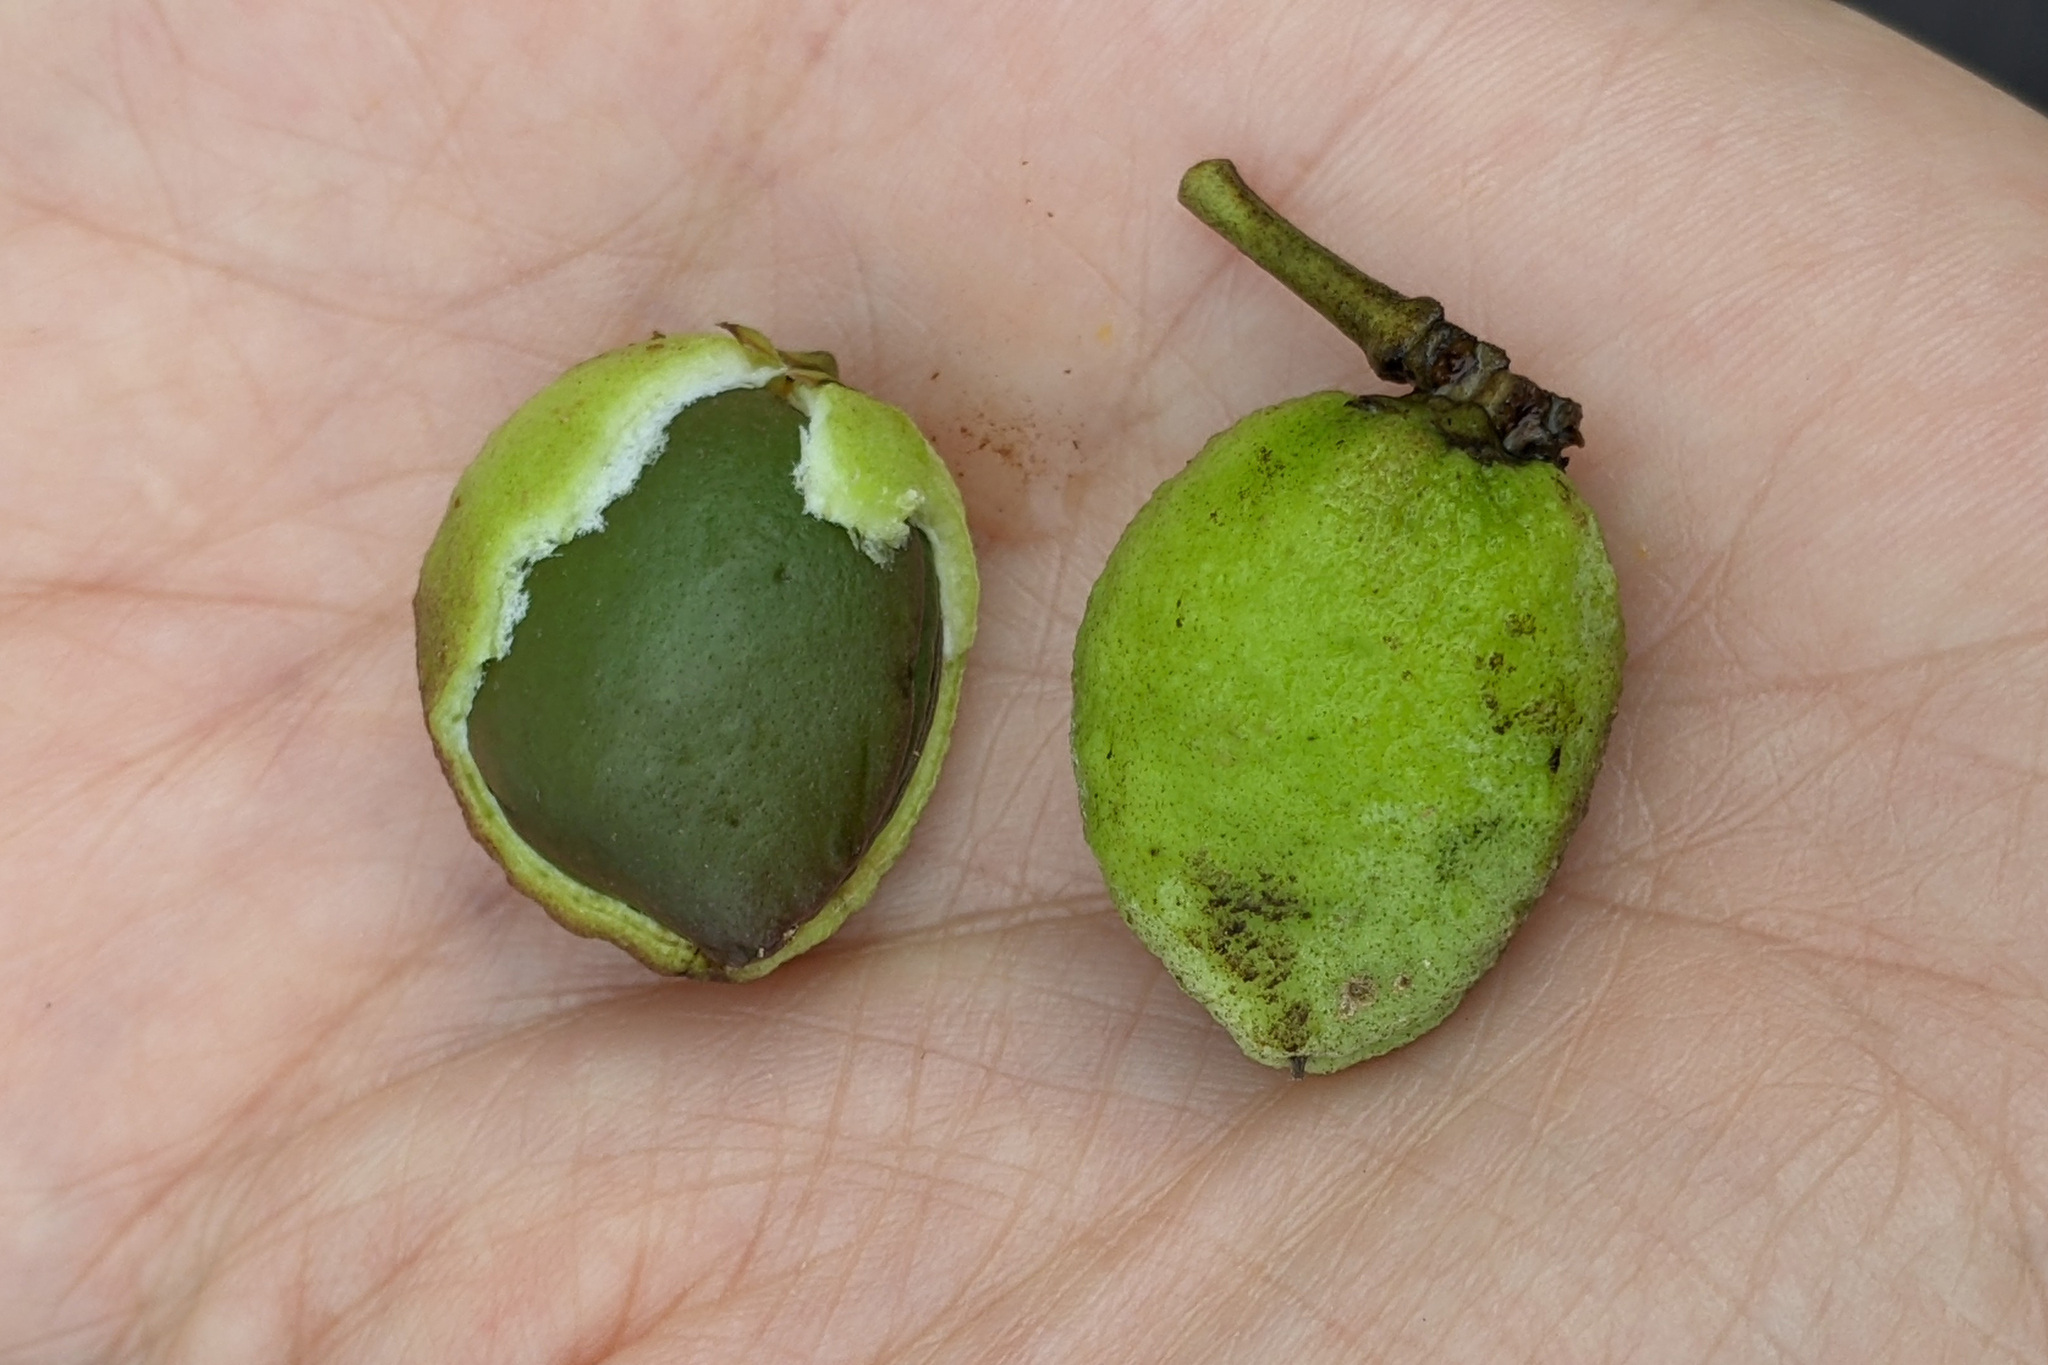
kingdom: Plantae
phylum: Tracheophyta
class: Magnoliopsida
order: Lamiales
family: Acanthaceae
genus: Avicennia
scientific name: Avicennia germinans
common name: Black mangrove
